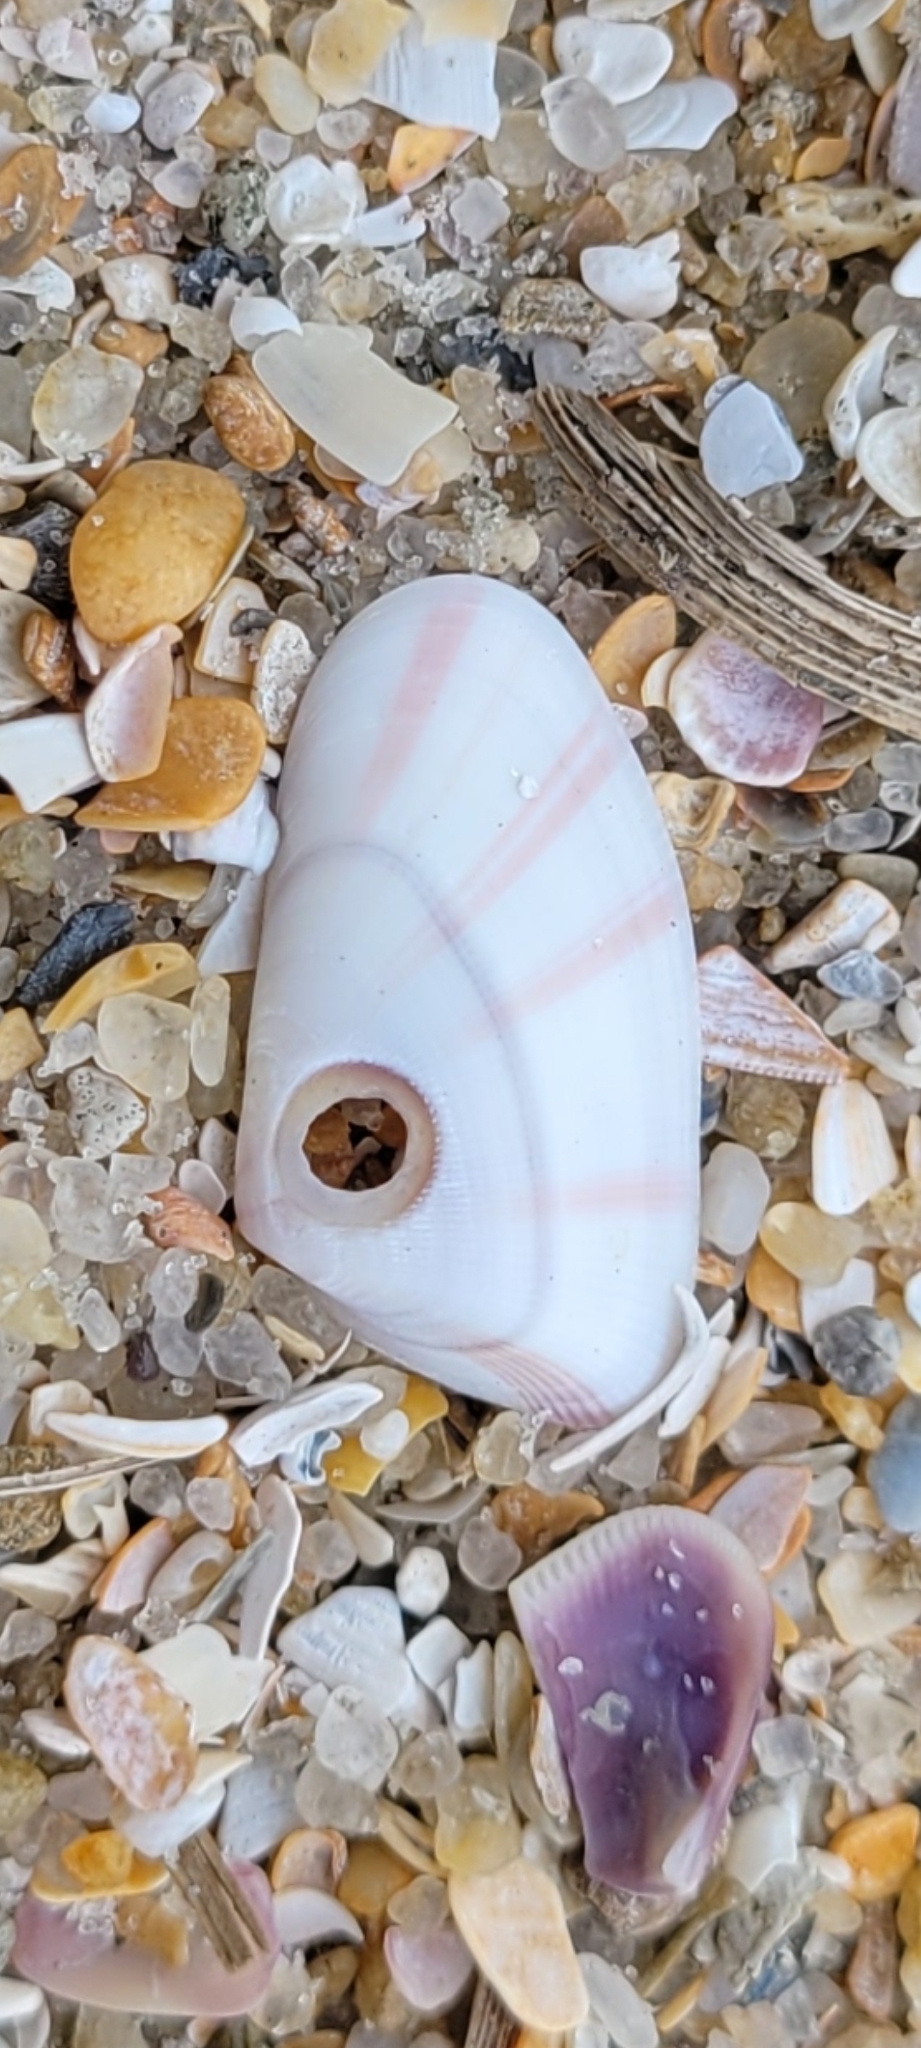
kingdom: Animalia
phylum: Mollusca
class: Bivalvia
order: Cardiida
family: Donacidae
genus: Donax
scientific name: Donax variabilis
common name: Butterfly shell
